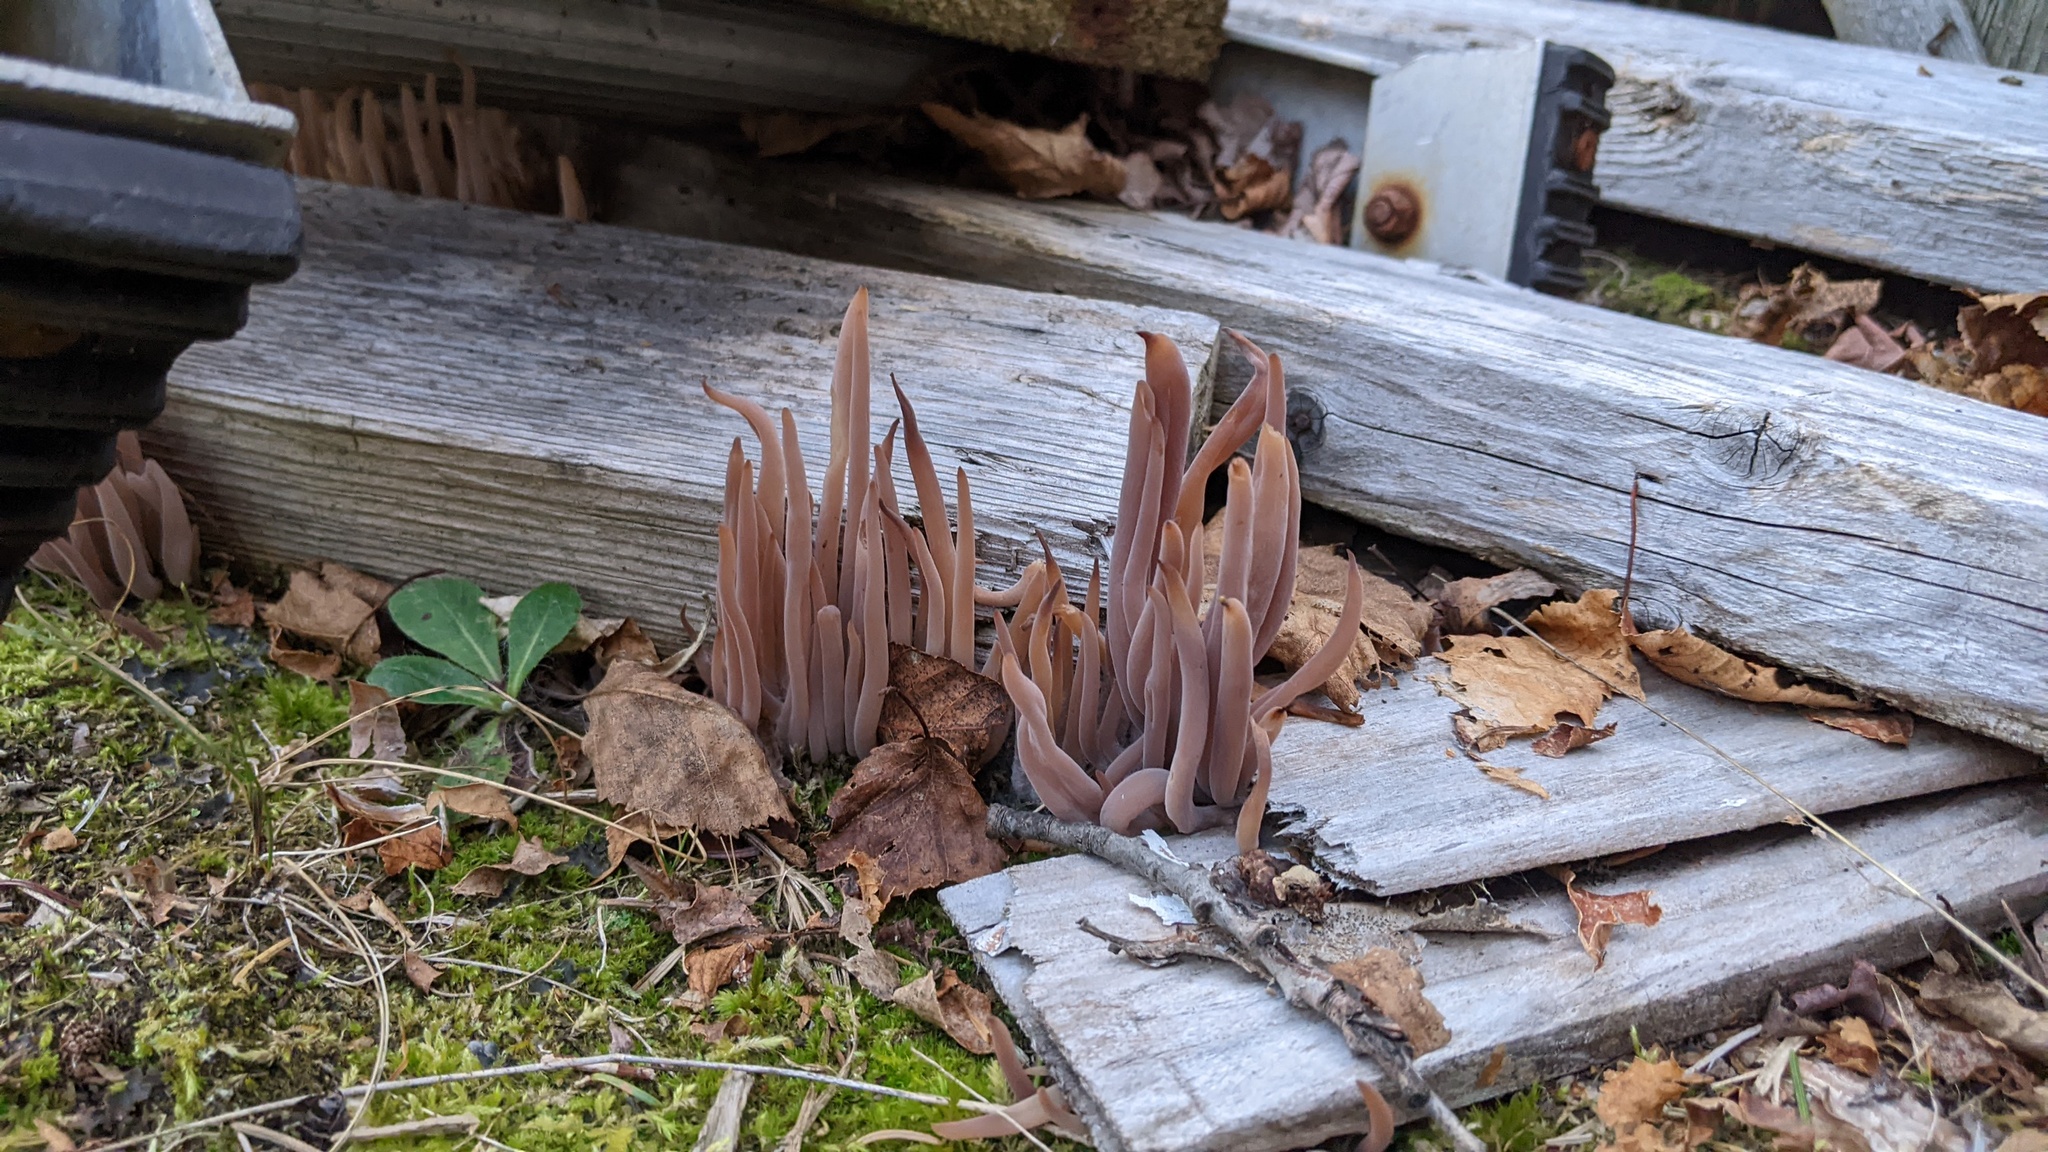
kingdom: Fungi
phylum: Basidiomycota
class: Agaricomycetes
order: Hymenochaetales
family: Rickenellaceae
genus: Alloclavaria
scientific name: Alloclavaria purpurea
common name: Purple spindles
